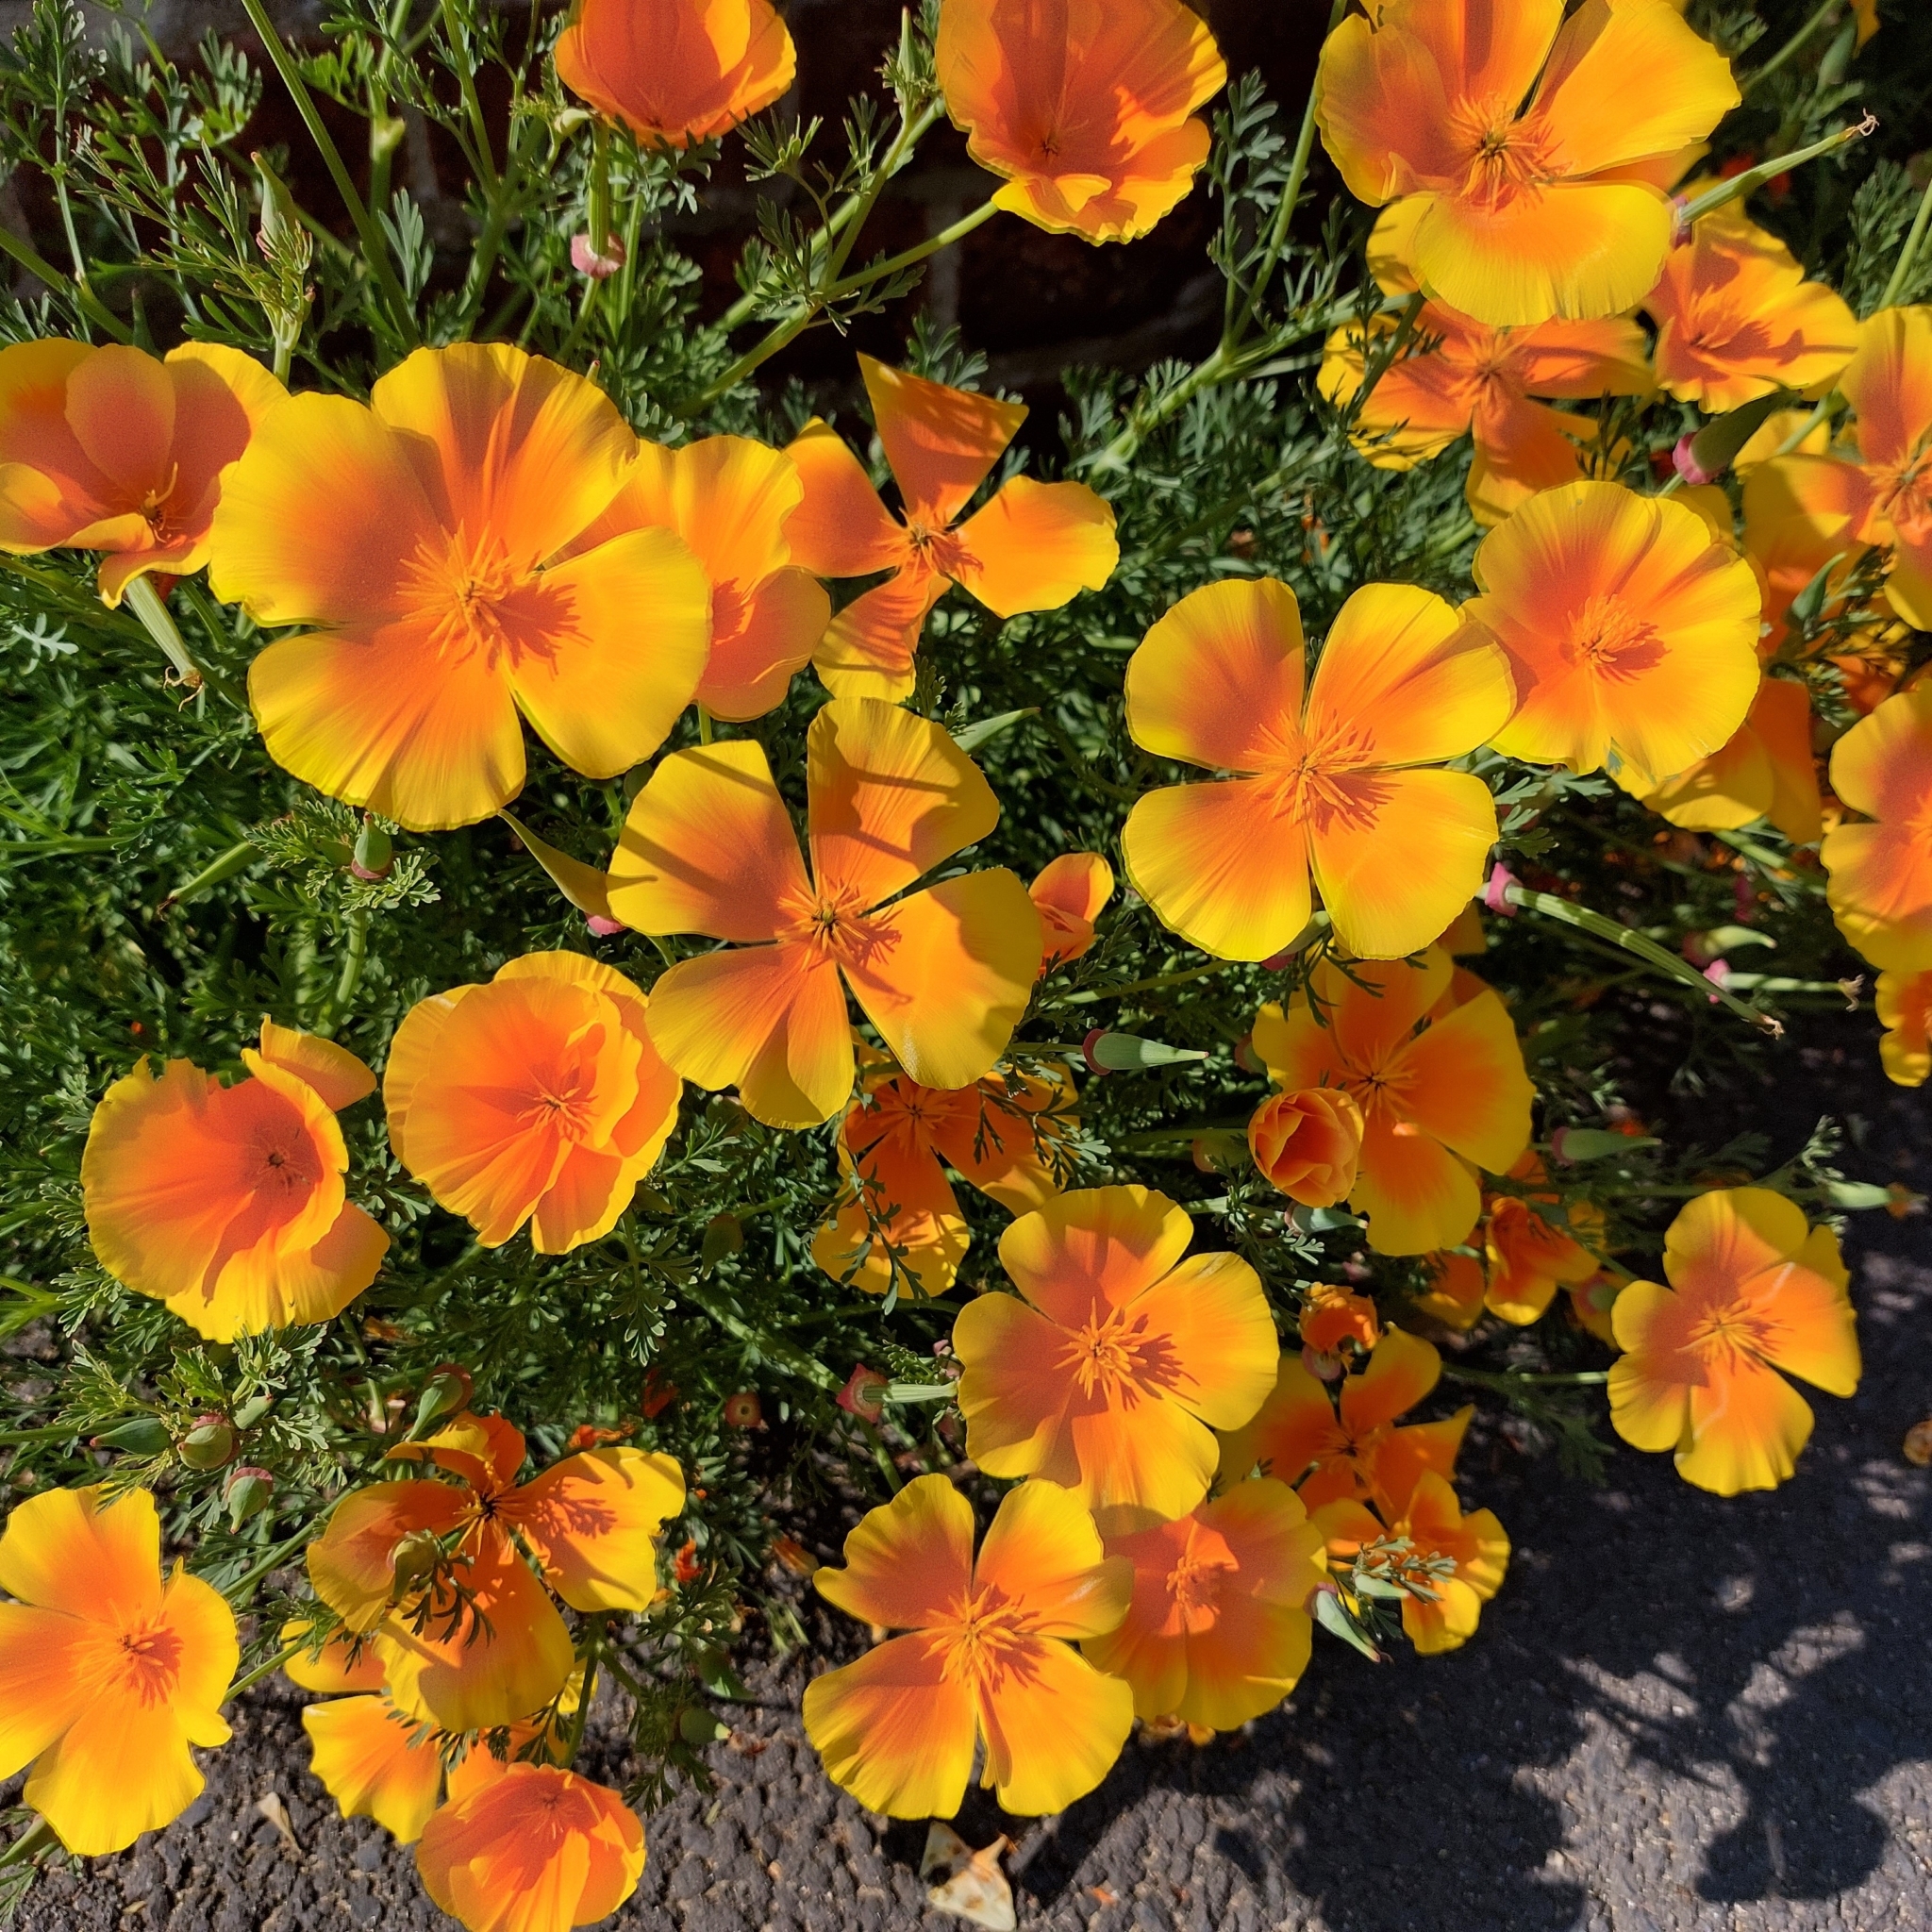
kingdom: Plantae
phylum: Tracheophyta
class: Magnoliopsida
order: Ranunculales
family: Papaveraceae
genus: Eschscholzia
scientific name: Eschscholzia californica
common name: California poppy
